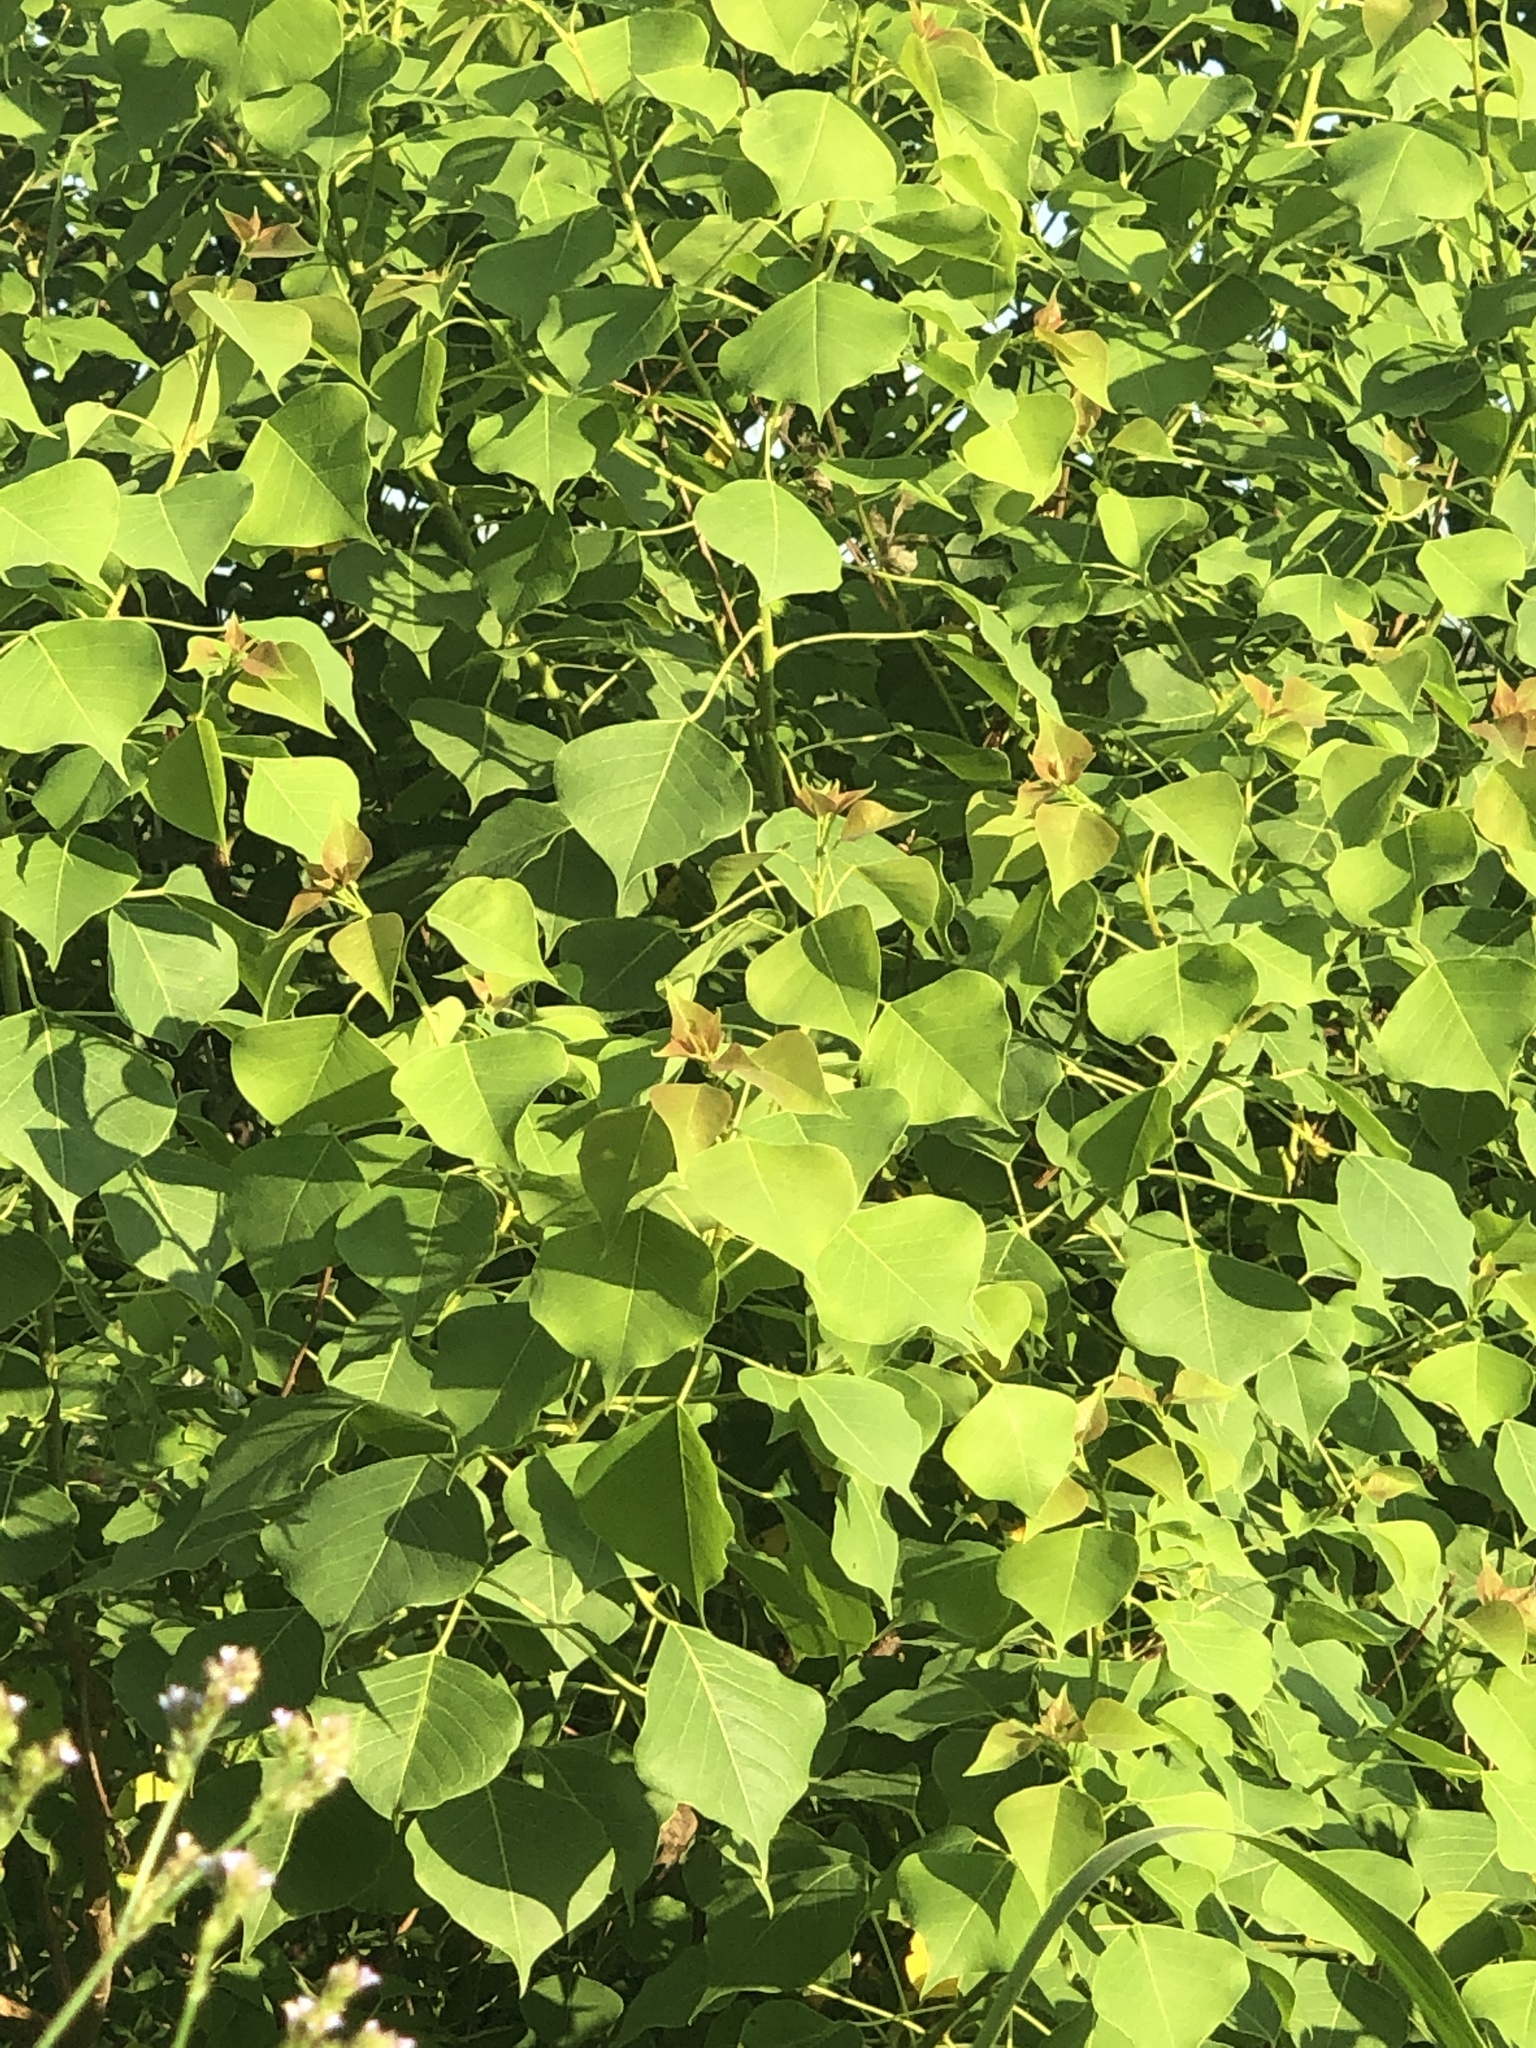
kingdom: Plantae
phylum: Tracheophyta
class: Magnoliopsida
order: Malpighiales
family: Euphorbiaceae
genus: Triadica
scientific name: Triadica sebifera
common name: Chinese tallow
